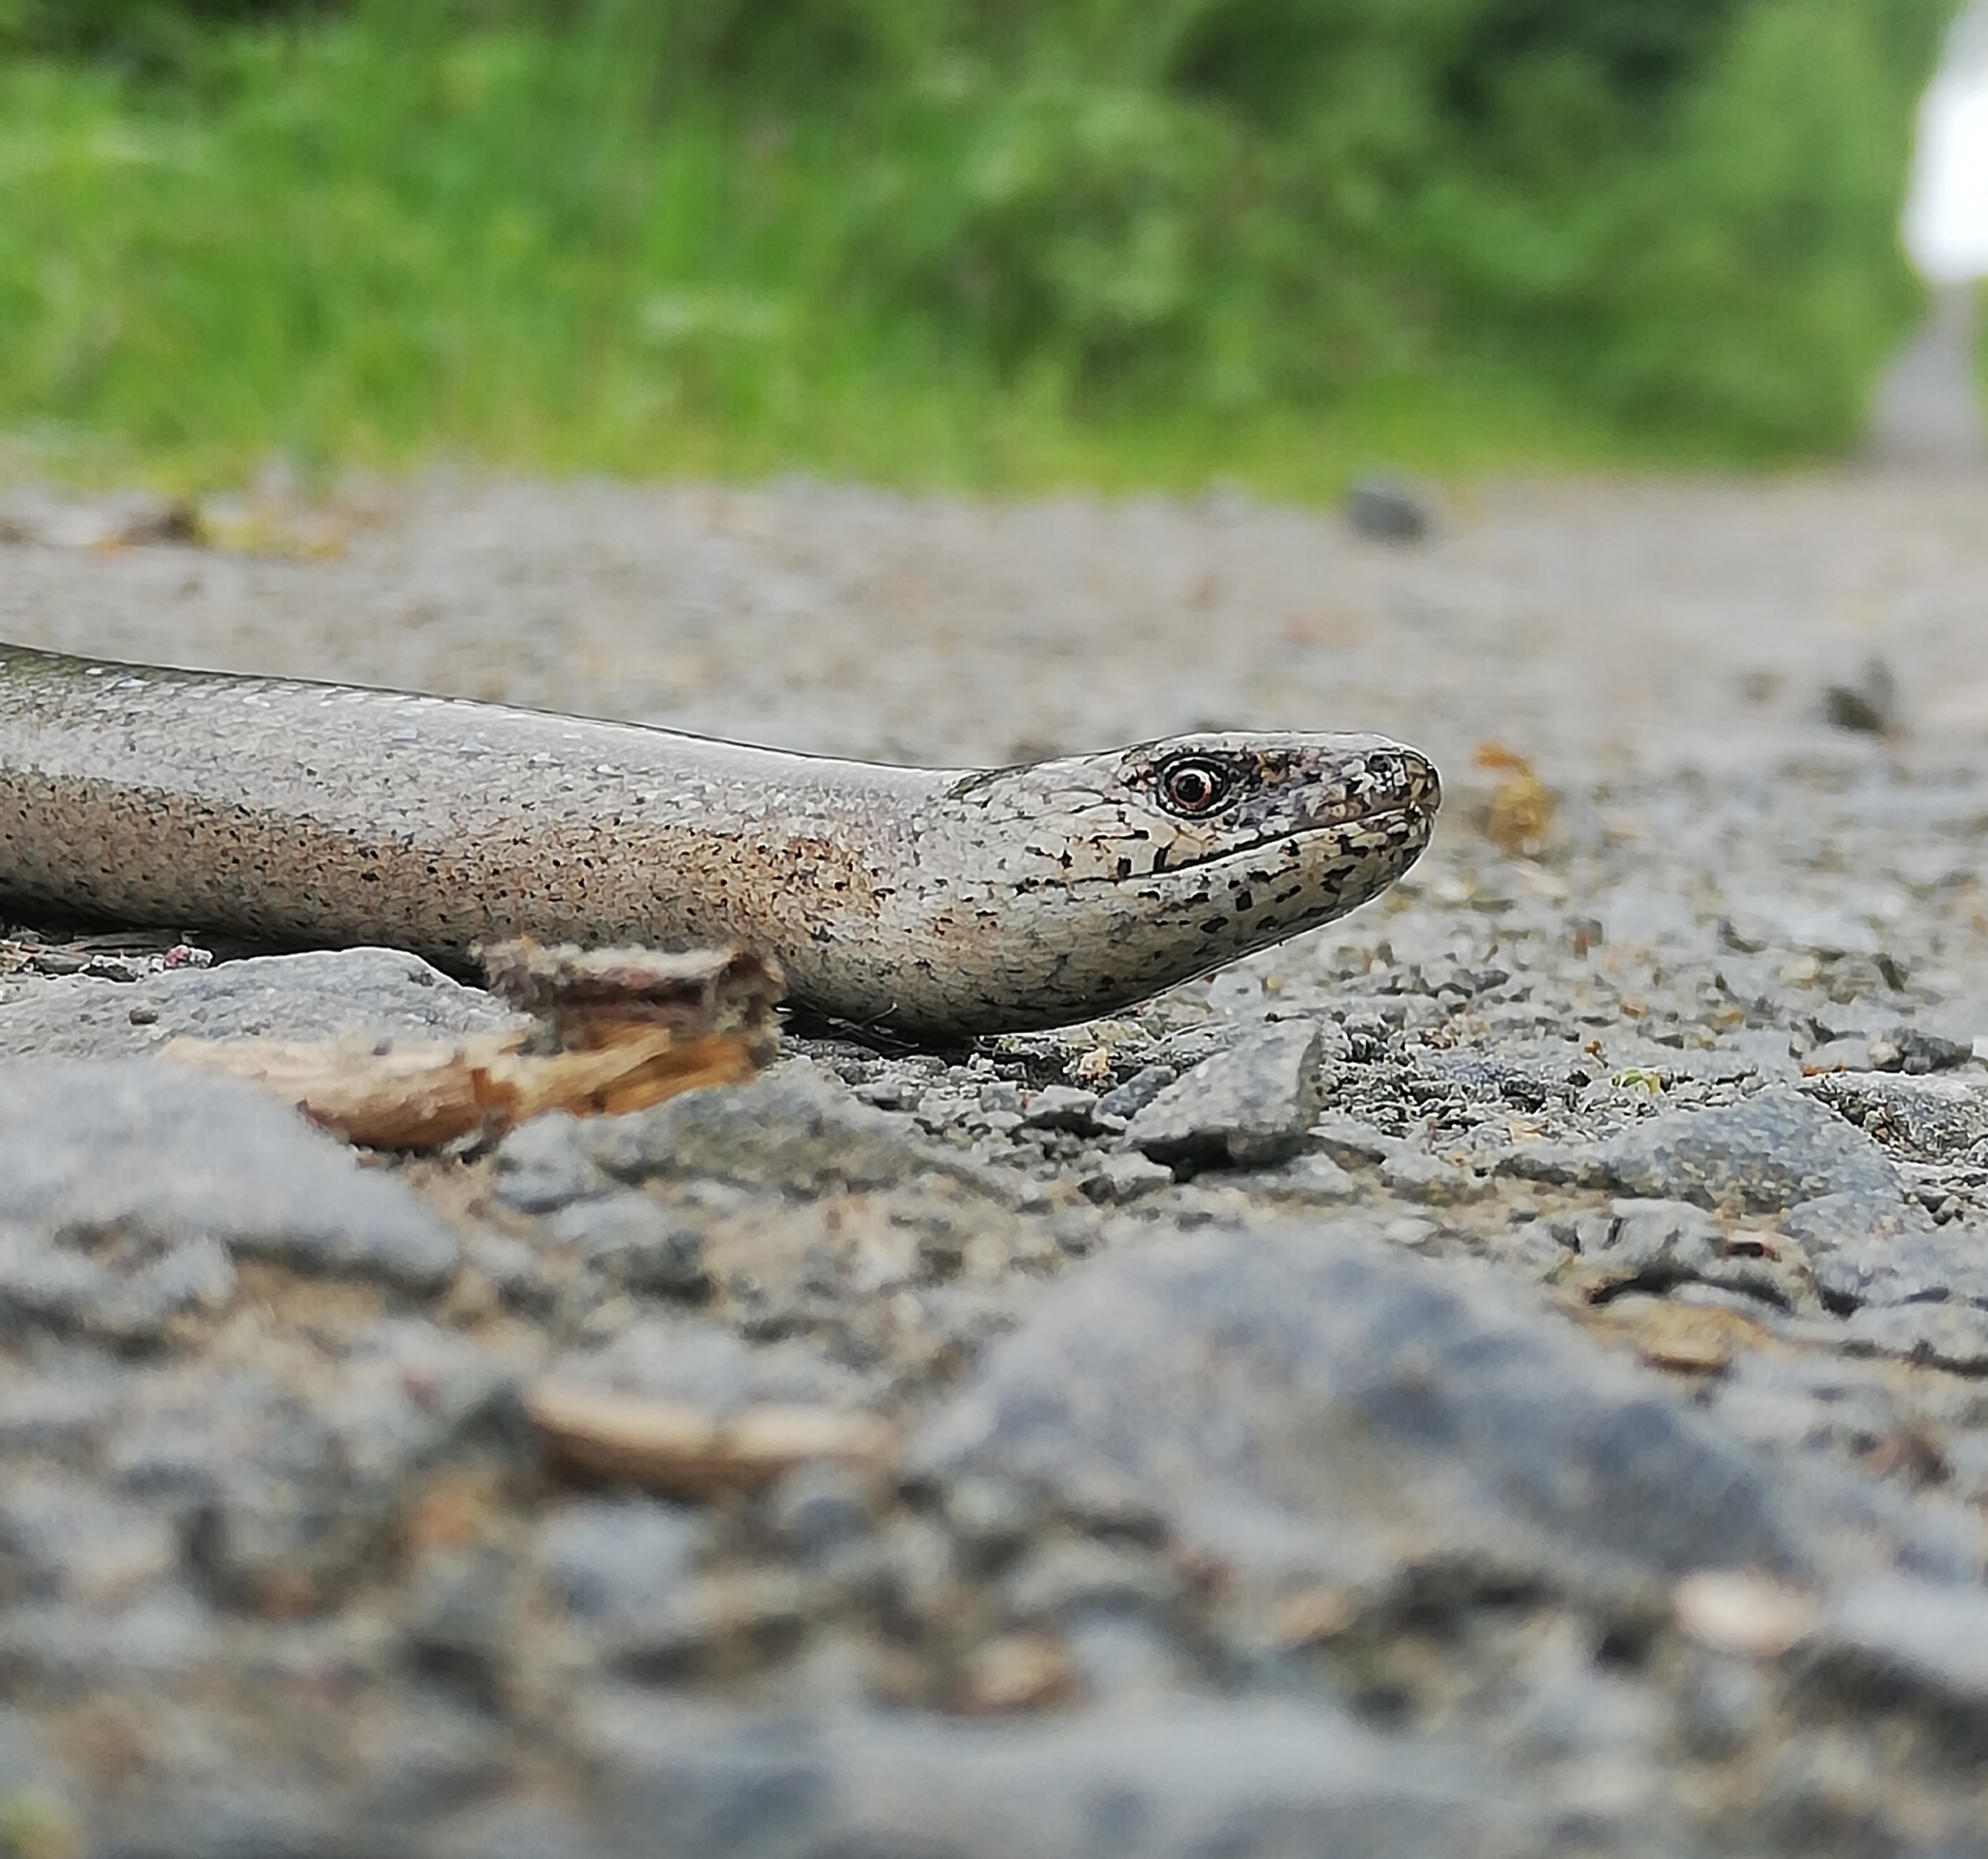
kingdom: Animalia
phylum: Chordata
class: Squamata
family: Anguidae
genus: Anguis
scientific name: Anguis fragilis
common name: Slow worm
